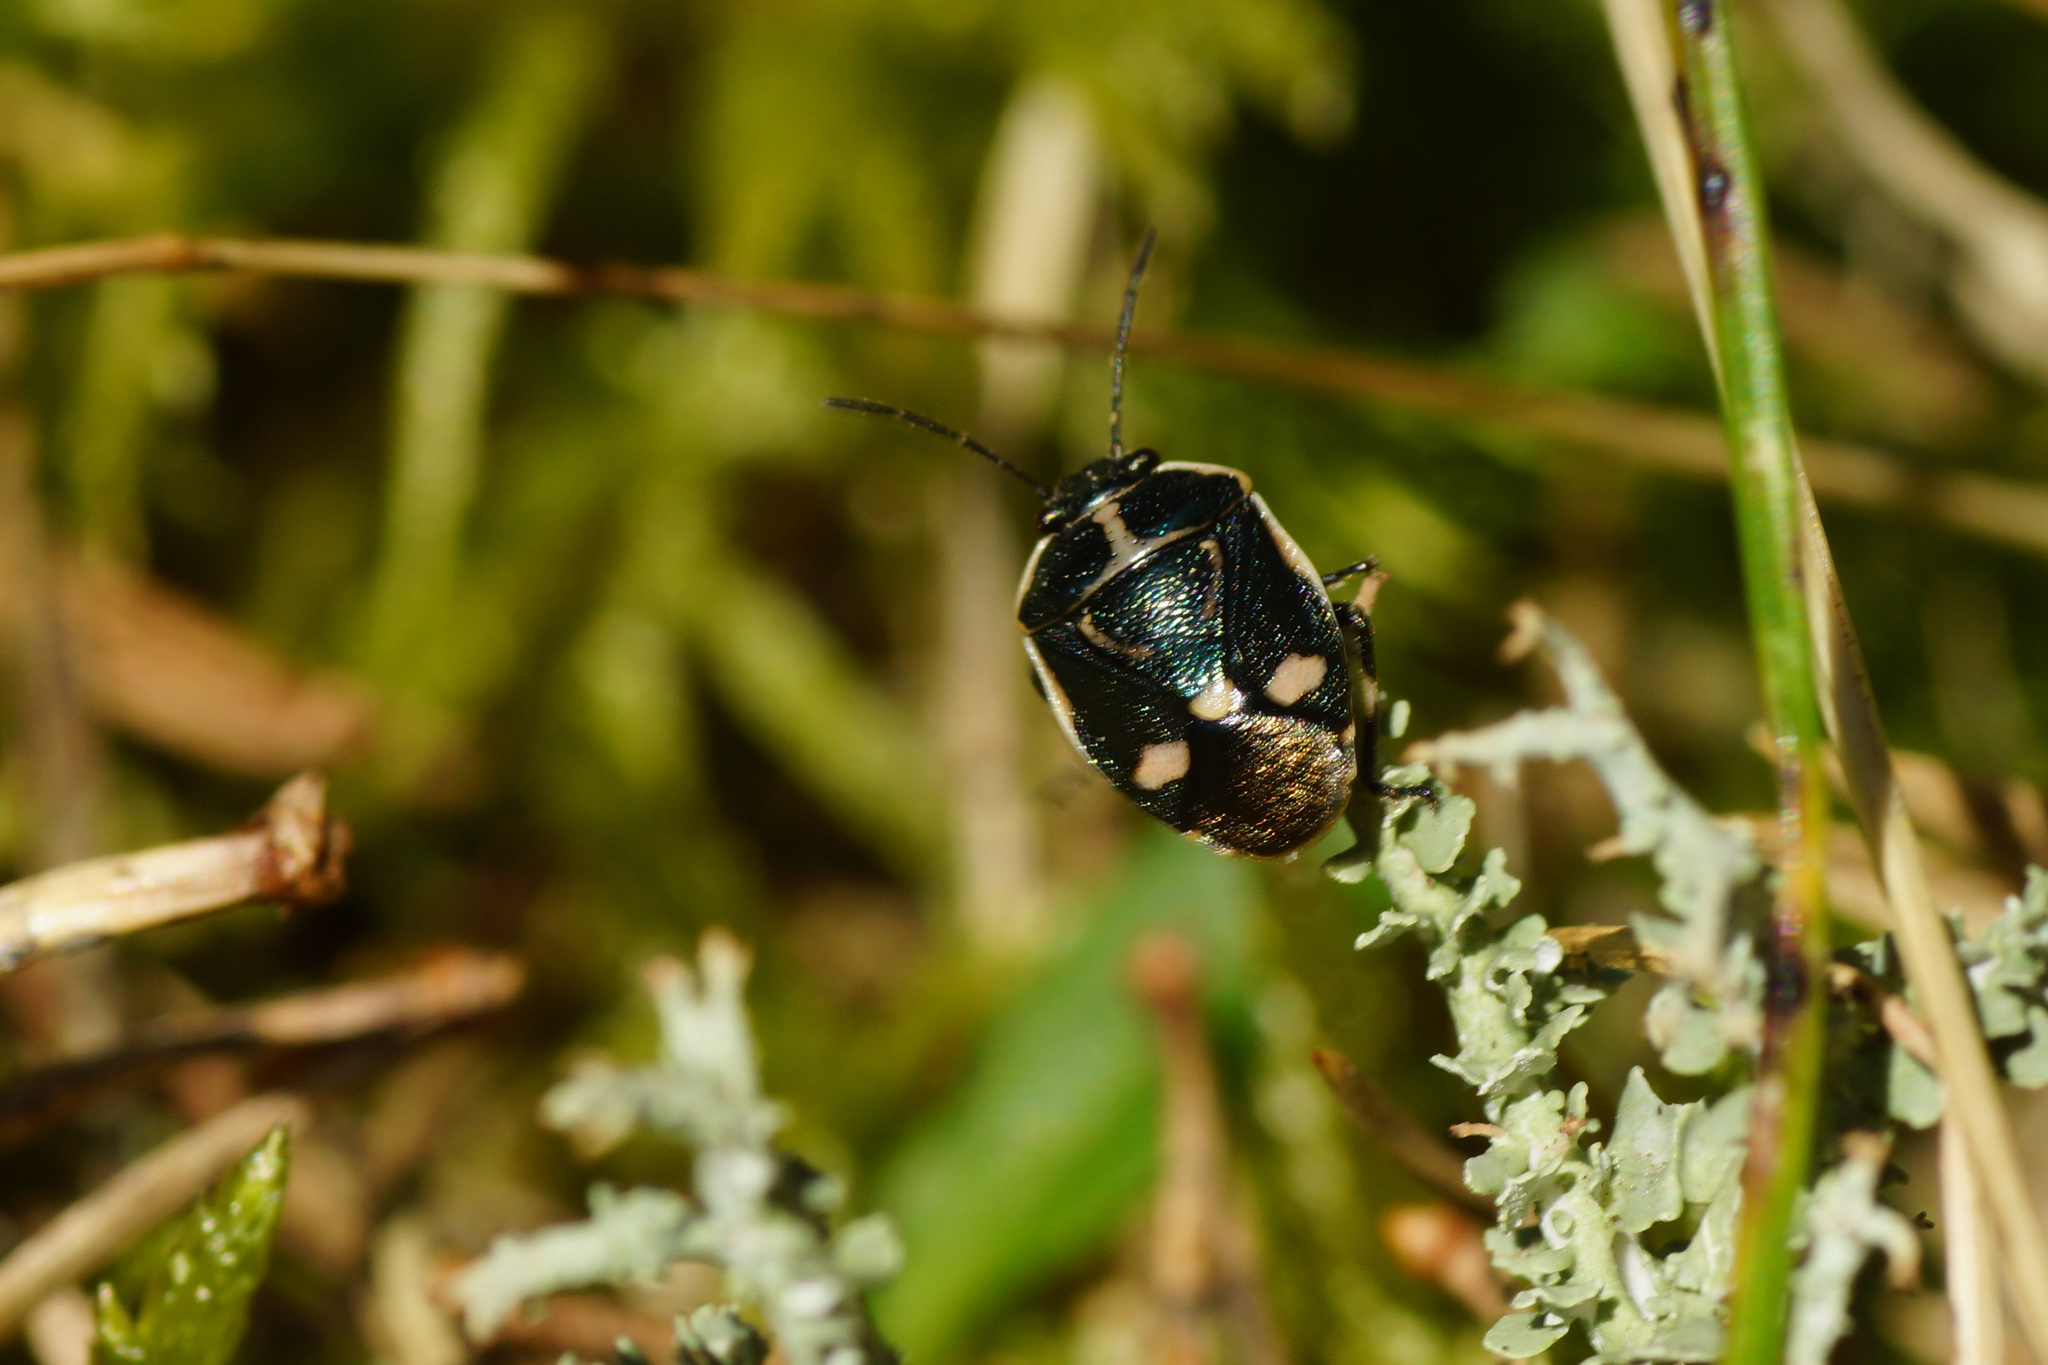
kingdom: Animalia
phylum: Arthropoda
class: Insecta
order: Hemiptera
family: Pentatomidae
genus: Eurydema
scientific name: Eurydema oleracea
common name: Cabbage bug
